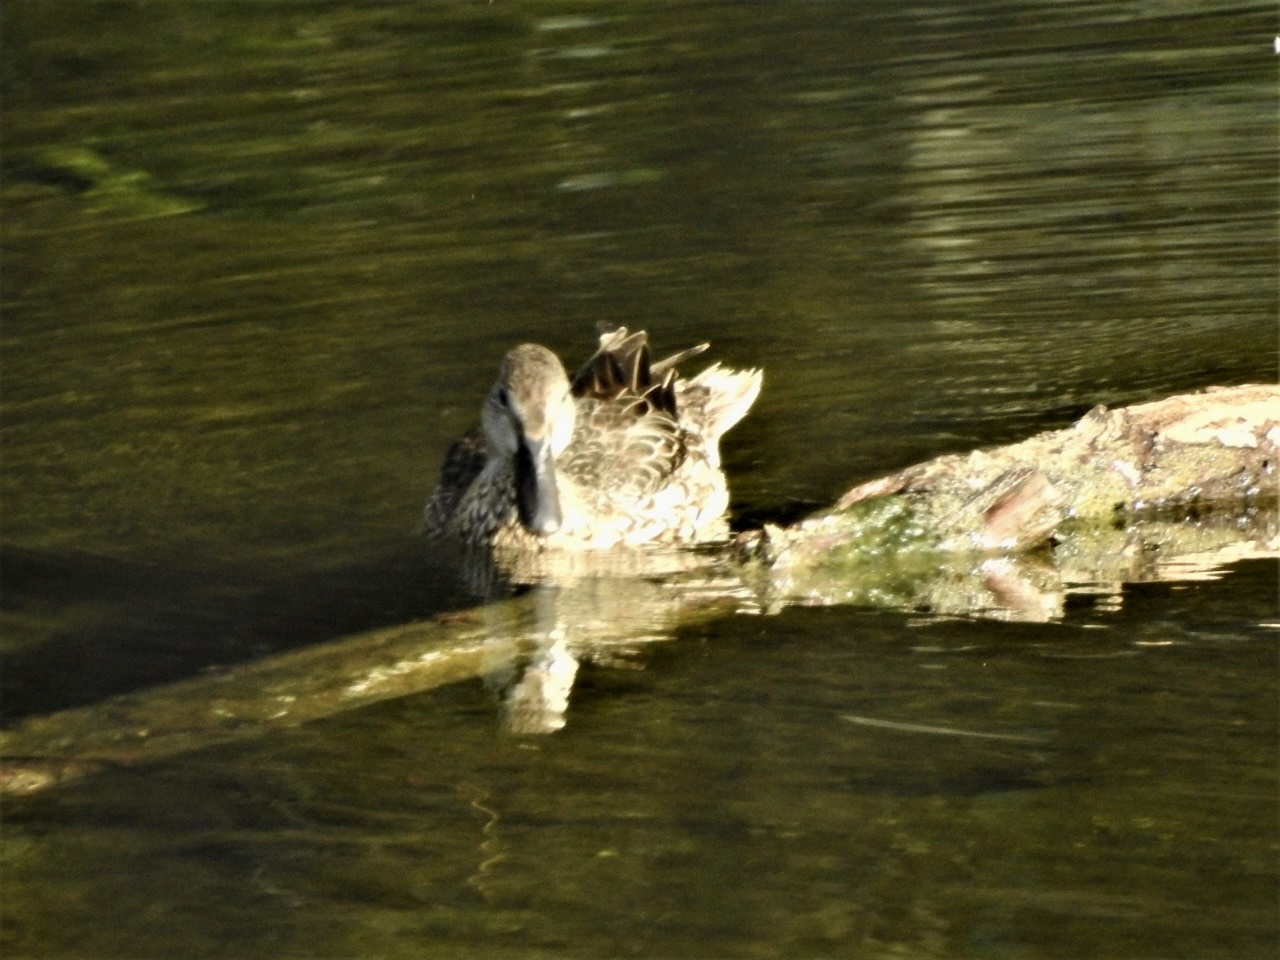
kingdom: Animalia
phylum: Chordata
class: Aves
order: Anseriformes
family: Anatidae
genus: Spatula
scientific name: Spatula discors
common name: Blue-winged teal
